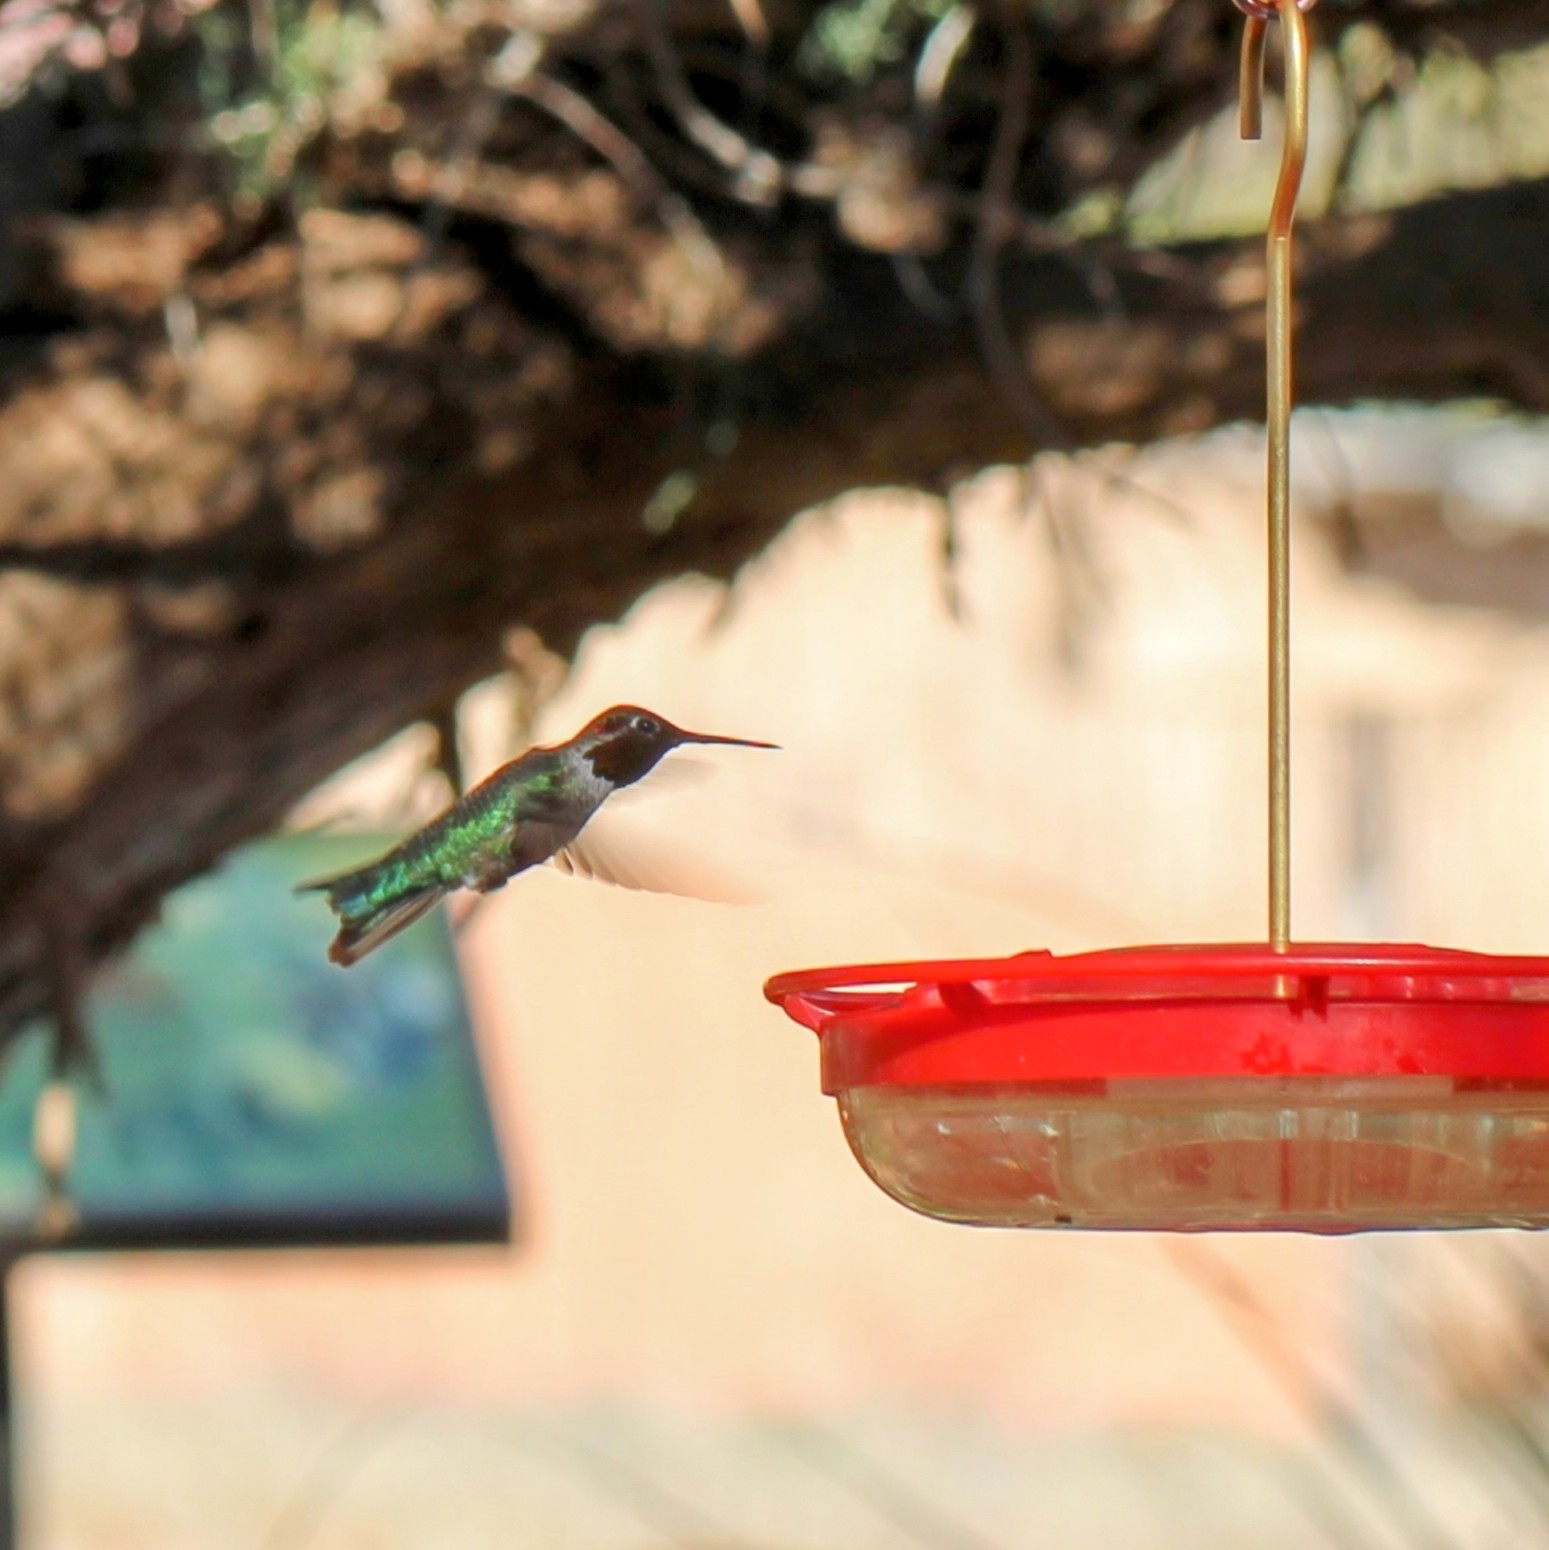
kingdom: Animalia
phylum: Chordata
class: Aves
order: Apodiformes
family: Trochilidae
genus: Calypte
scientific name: Calypte anna
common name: Anna's hummingbird
